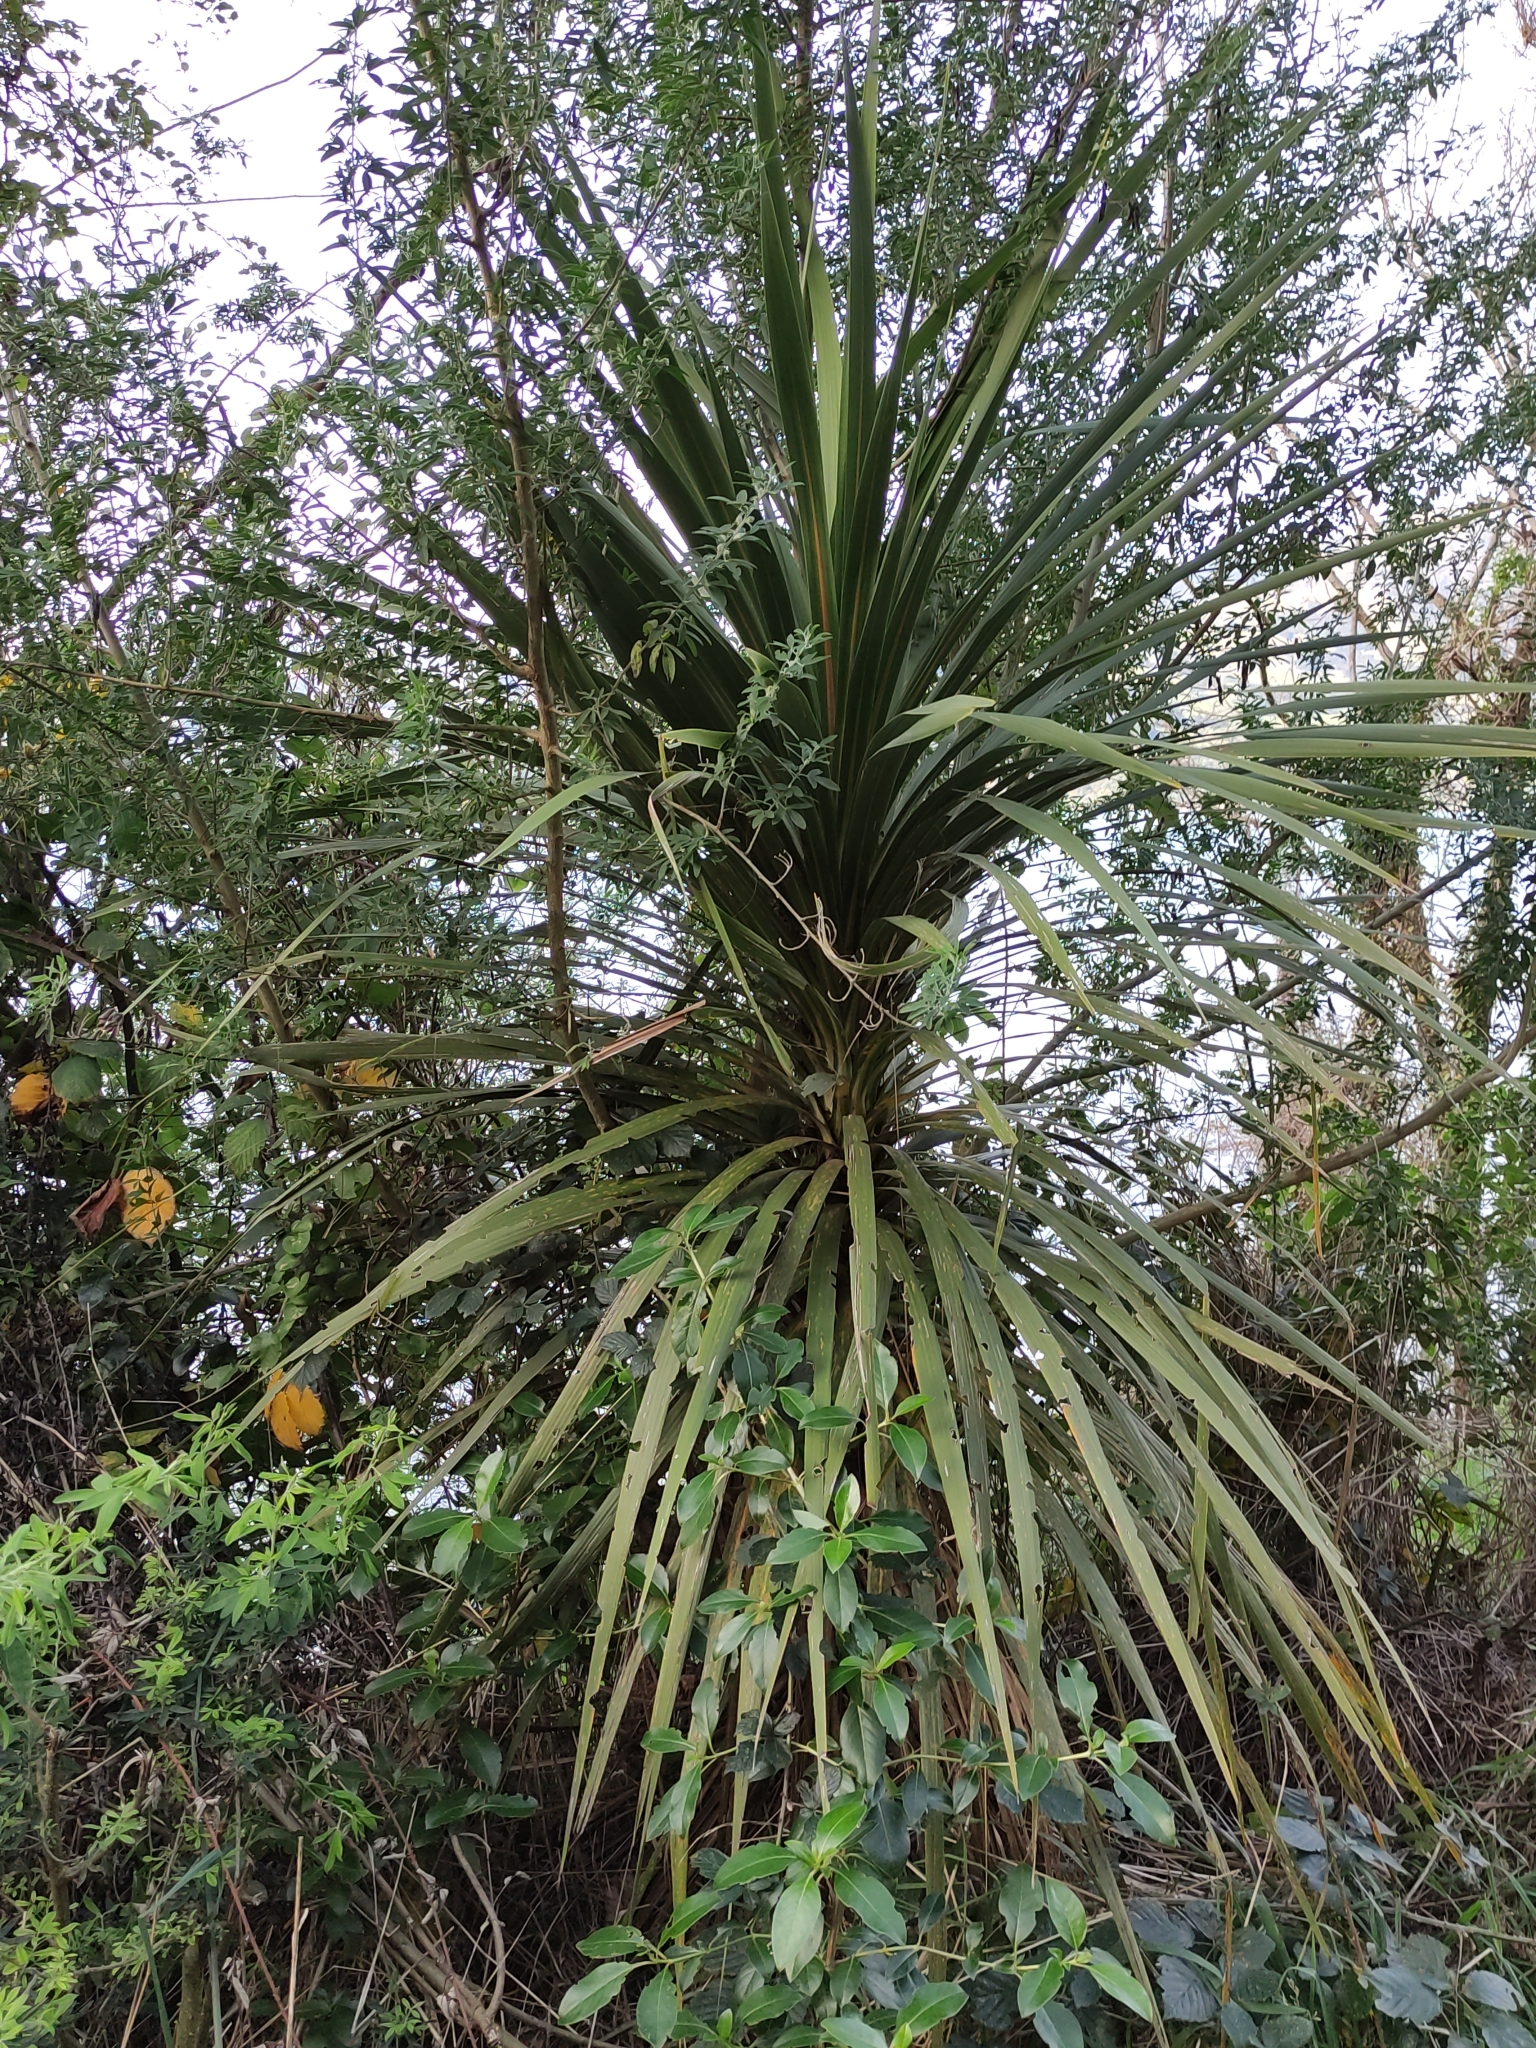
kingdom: Plantae
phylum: Tracheophyta
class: Liliopsida
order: Asparagales
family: Asparagaceae
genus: Cordyline
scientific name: Cordyline australis
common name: Cabbage-palm
